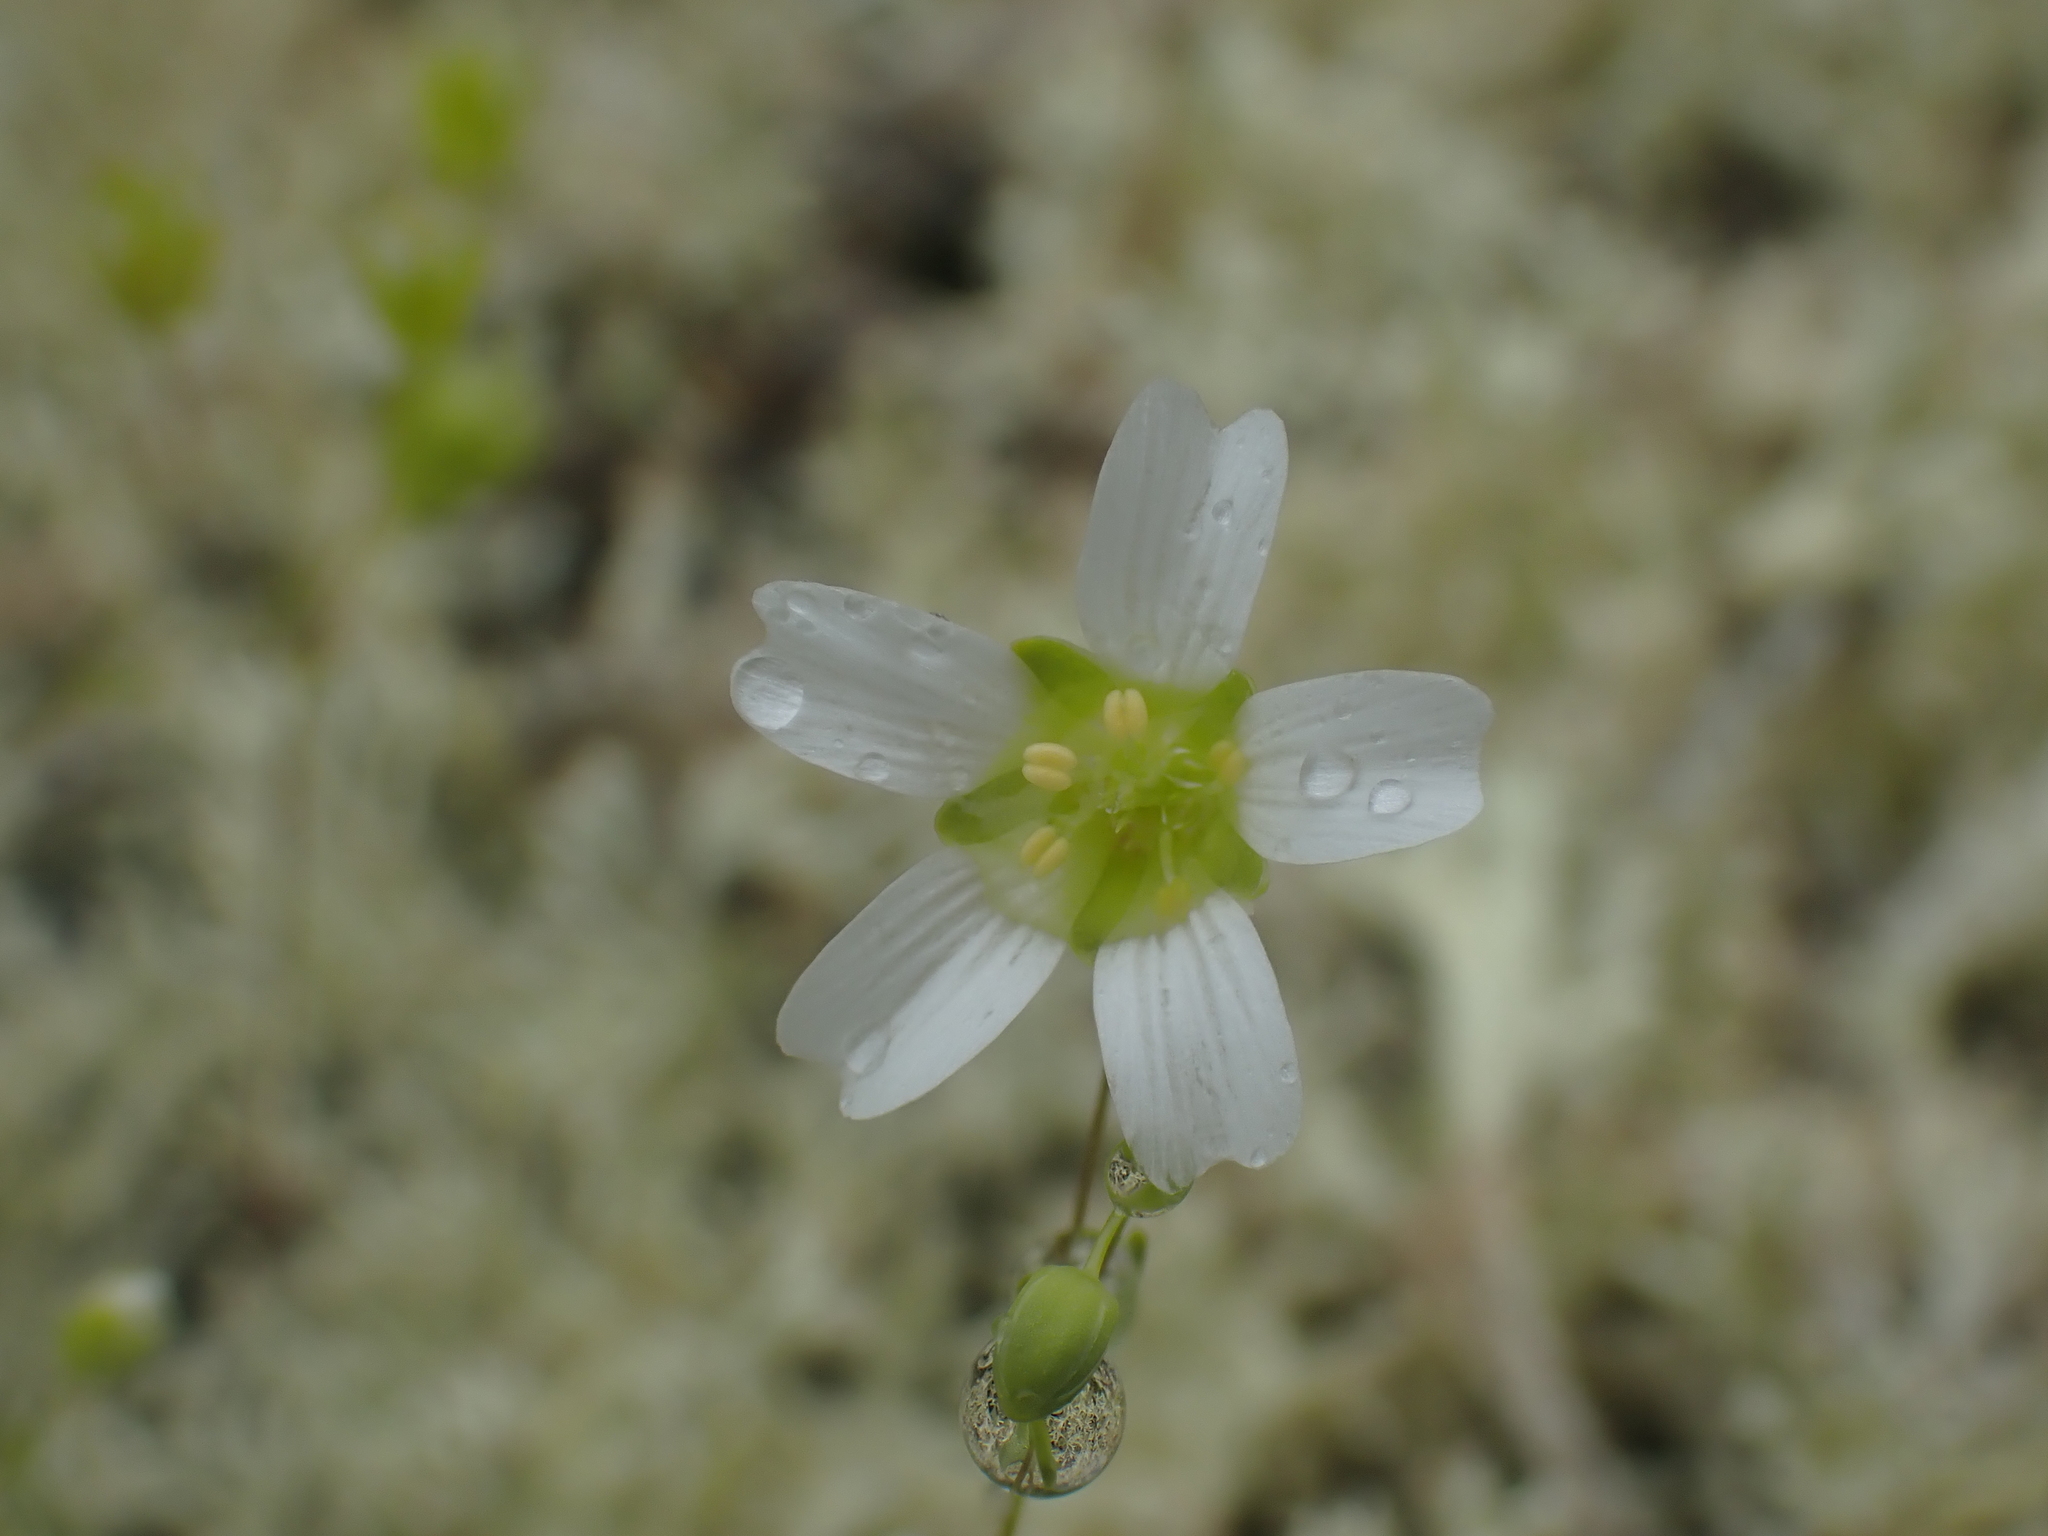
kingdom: Plantae
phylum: Tracheophyta
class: Magnoliopsida
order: Caryophyllales
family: Caryophyllaceae
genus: Geocarpon
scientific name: Geocarpon groenlandicum
